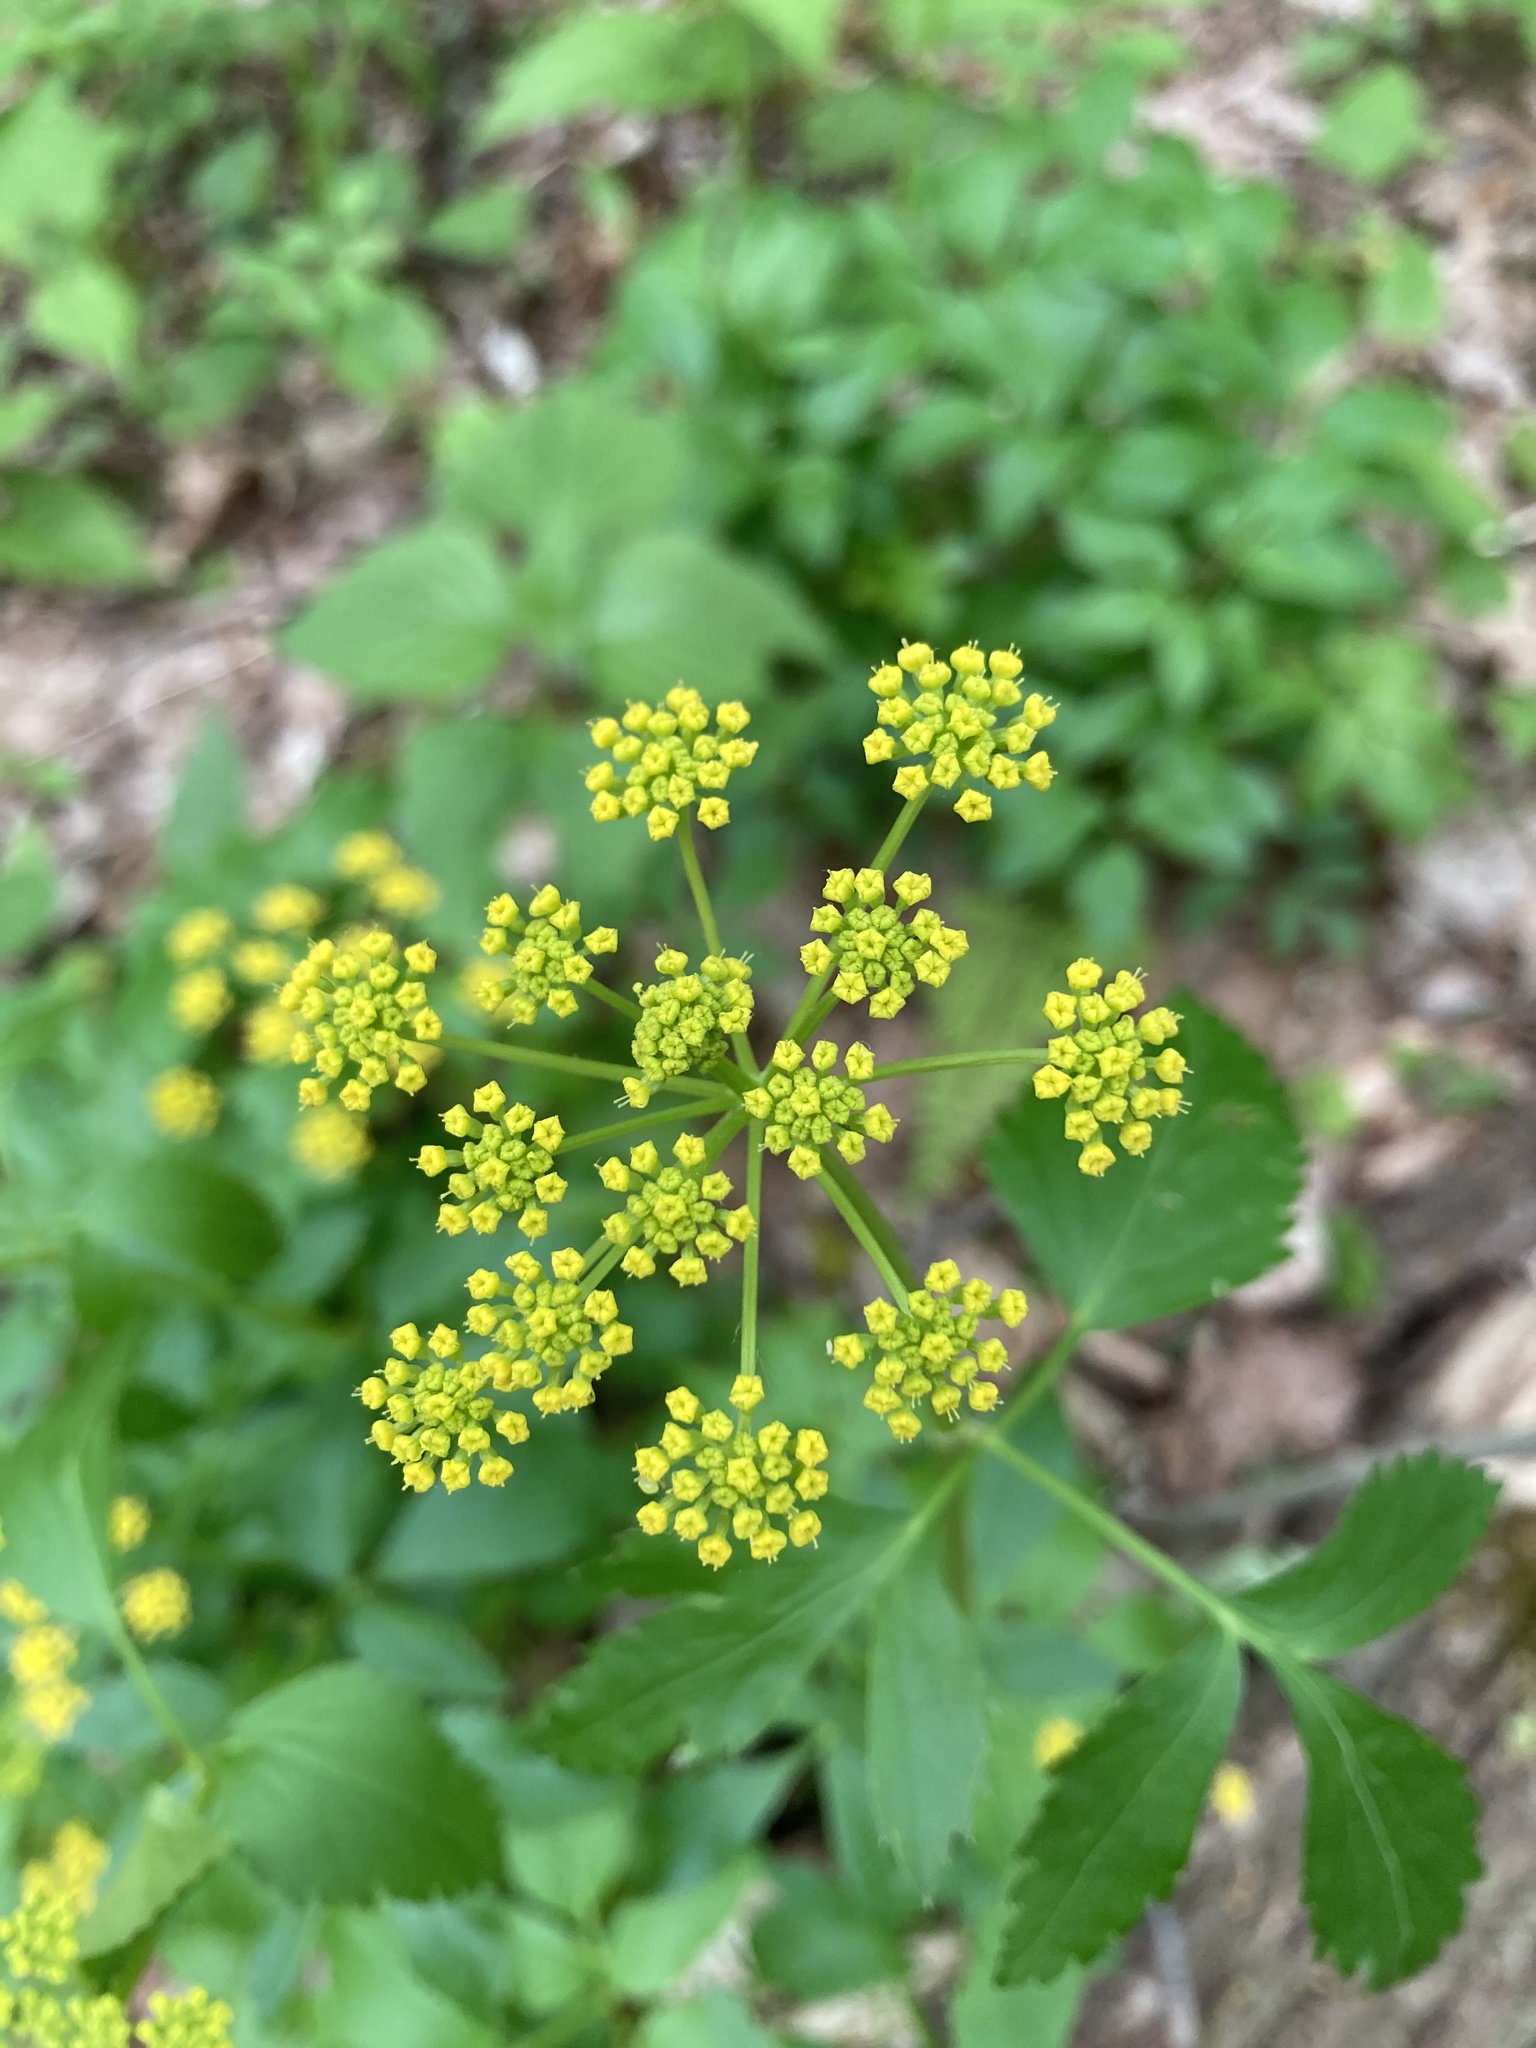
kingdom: Plantae
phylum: Tracheophyta
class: Magnoliopsida
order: Apiales
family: Apiaceae
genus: Zizia
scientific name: Zizia aurea
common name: Golden alexanders
